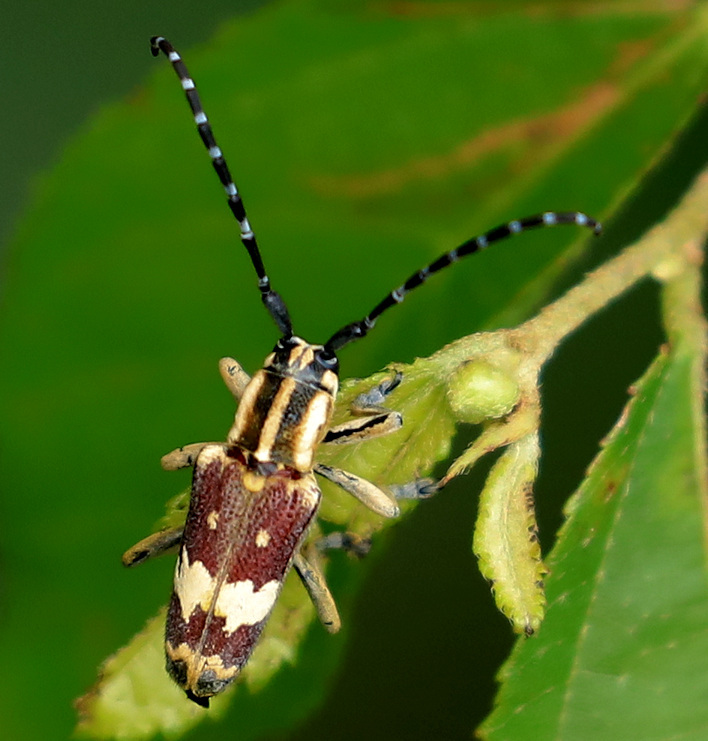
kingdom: Animalia
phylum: Arthropoda
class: Insecta
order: Coleoptera
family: Cerambycidae
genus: Glenea
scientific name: Glenea apicalis
